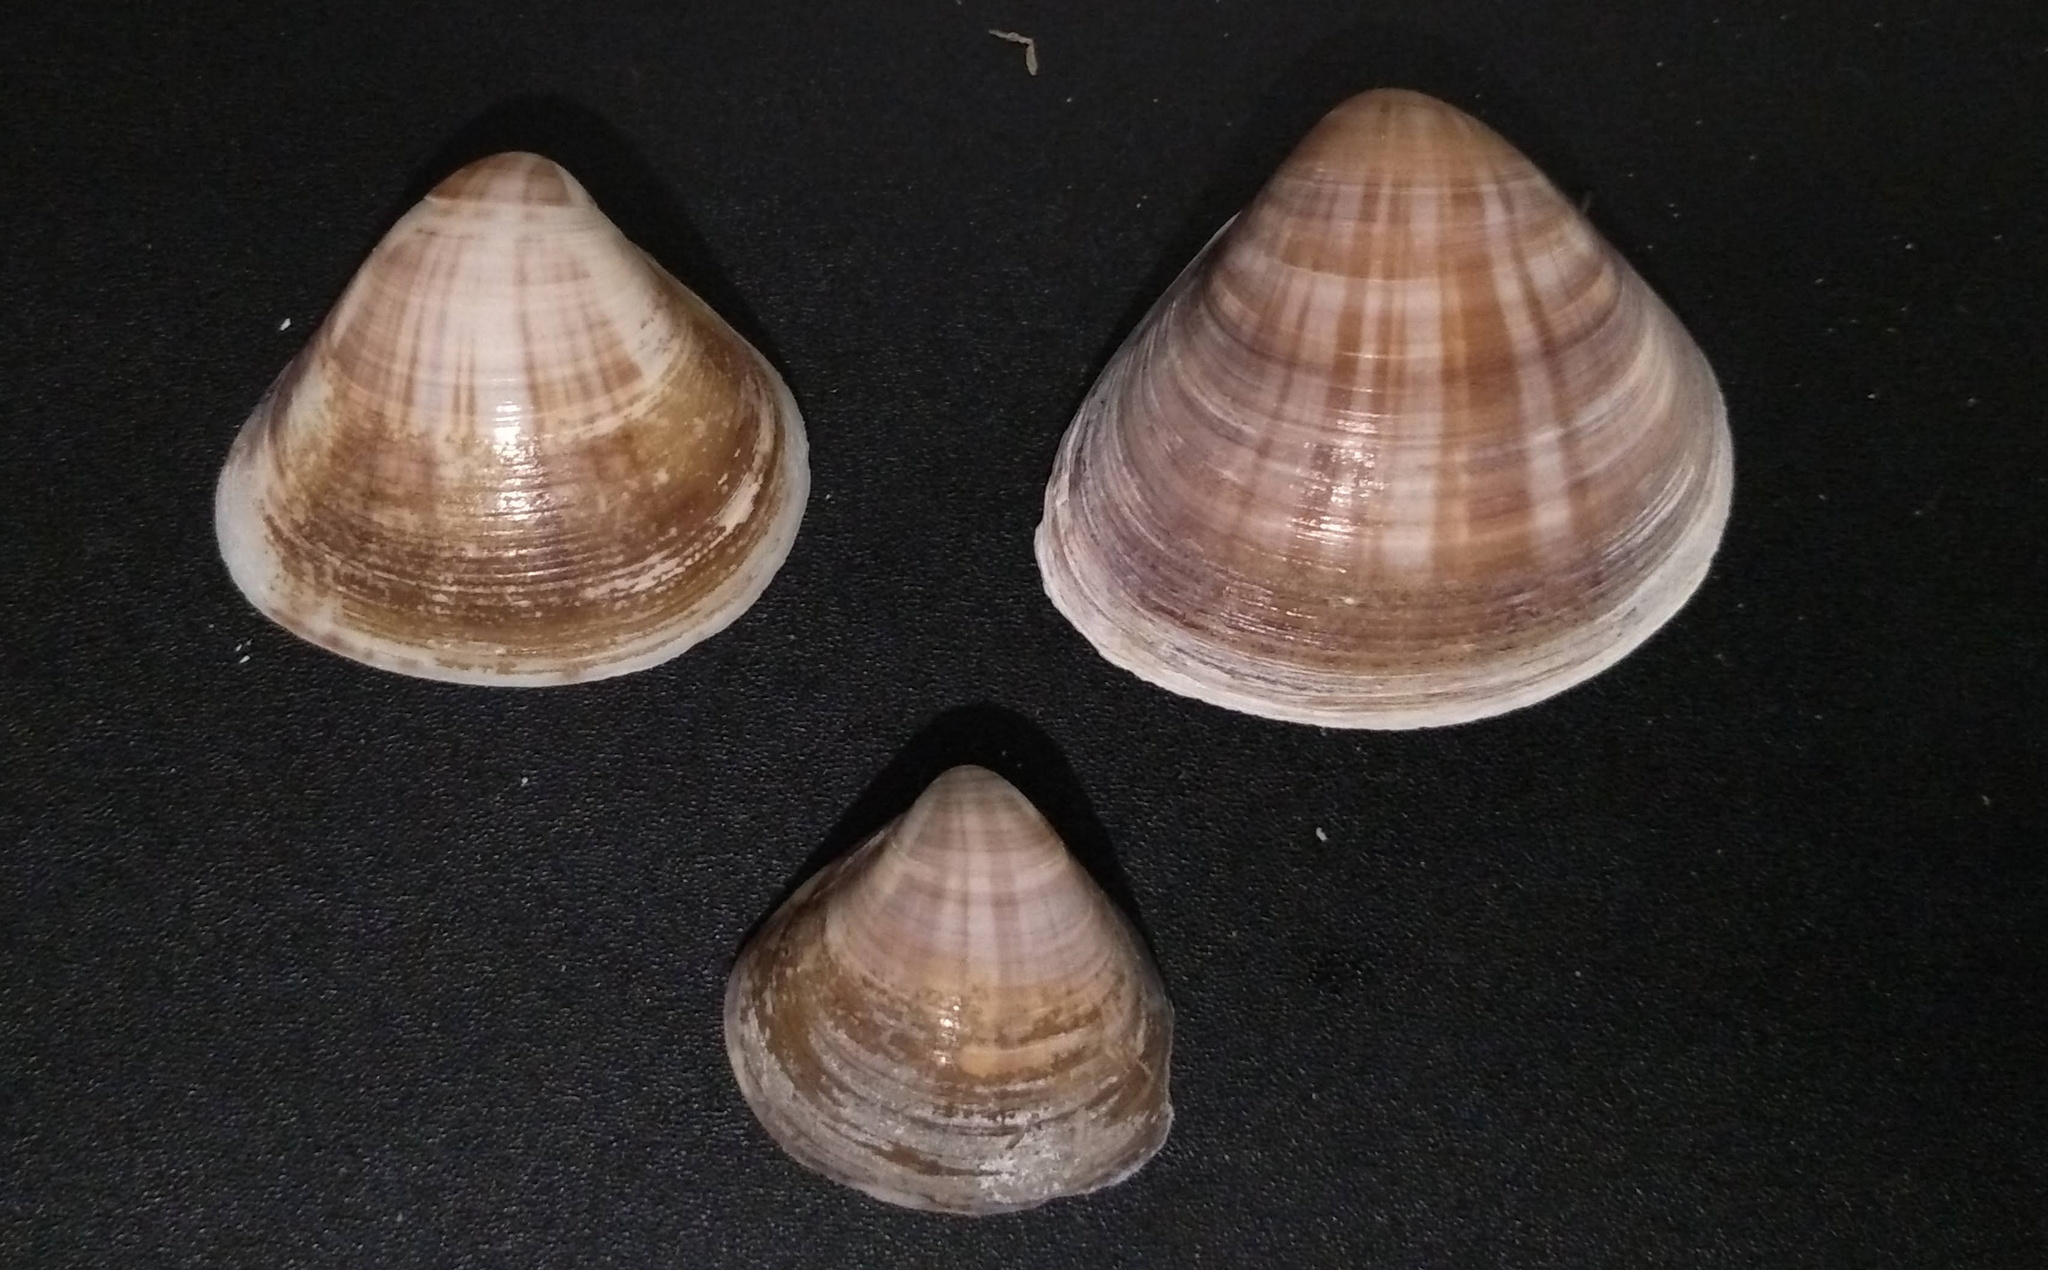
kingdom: Animalia
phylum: Mollusca
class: Bivalvia
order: Venerida
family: Veneridae
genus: Tivela
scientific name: Tivela mactroides
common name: Trigonal tivela
